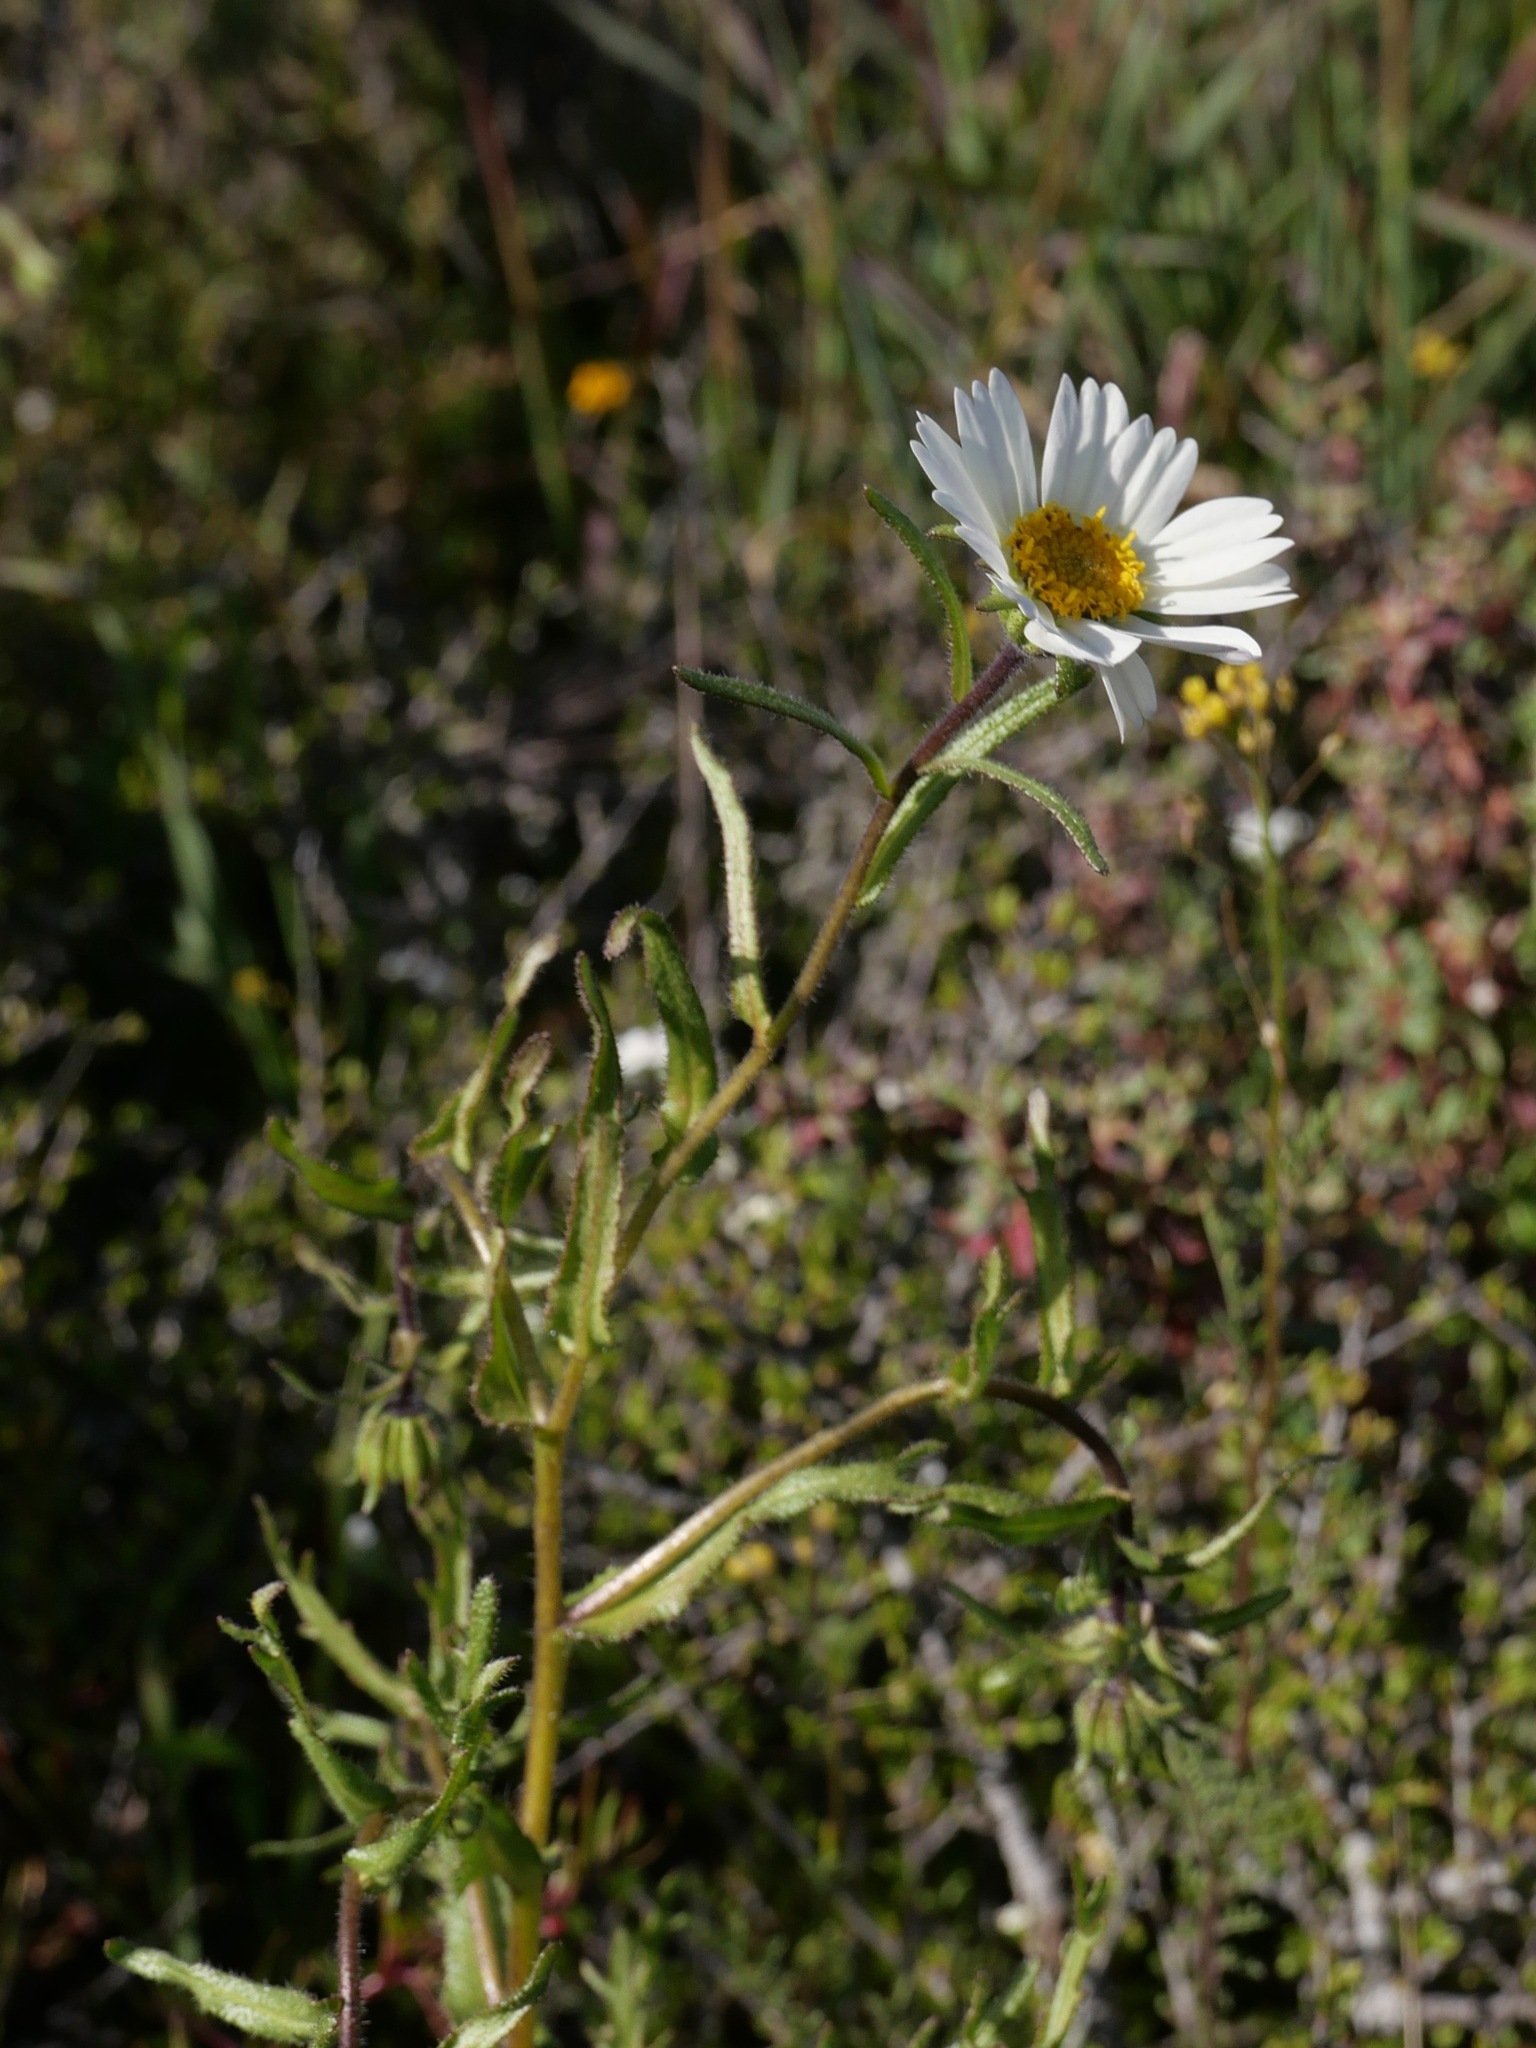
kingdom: Plantae
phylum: Tracheophyta
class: Magnoliopsida
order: Asterales
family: Asteraceae
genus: Layia
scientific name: Layia erubescens
